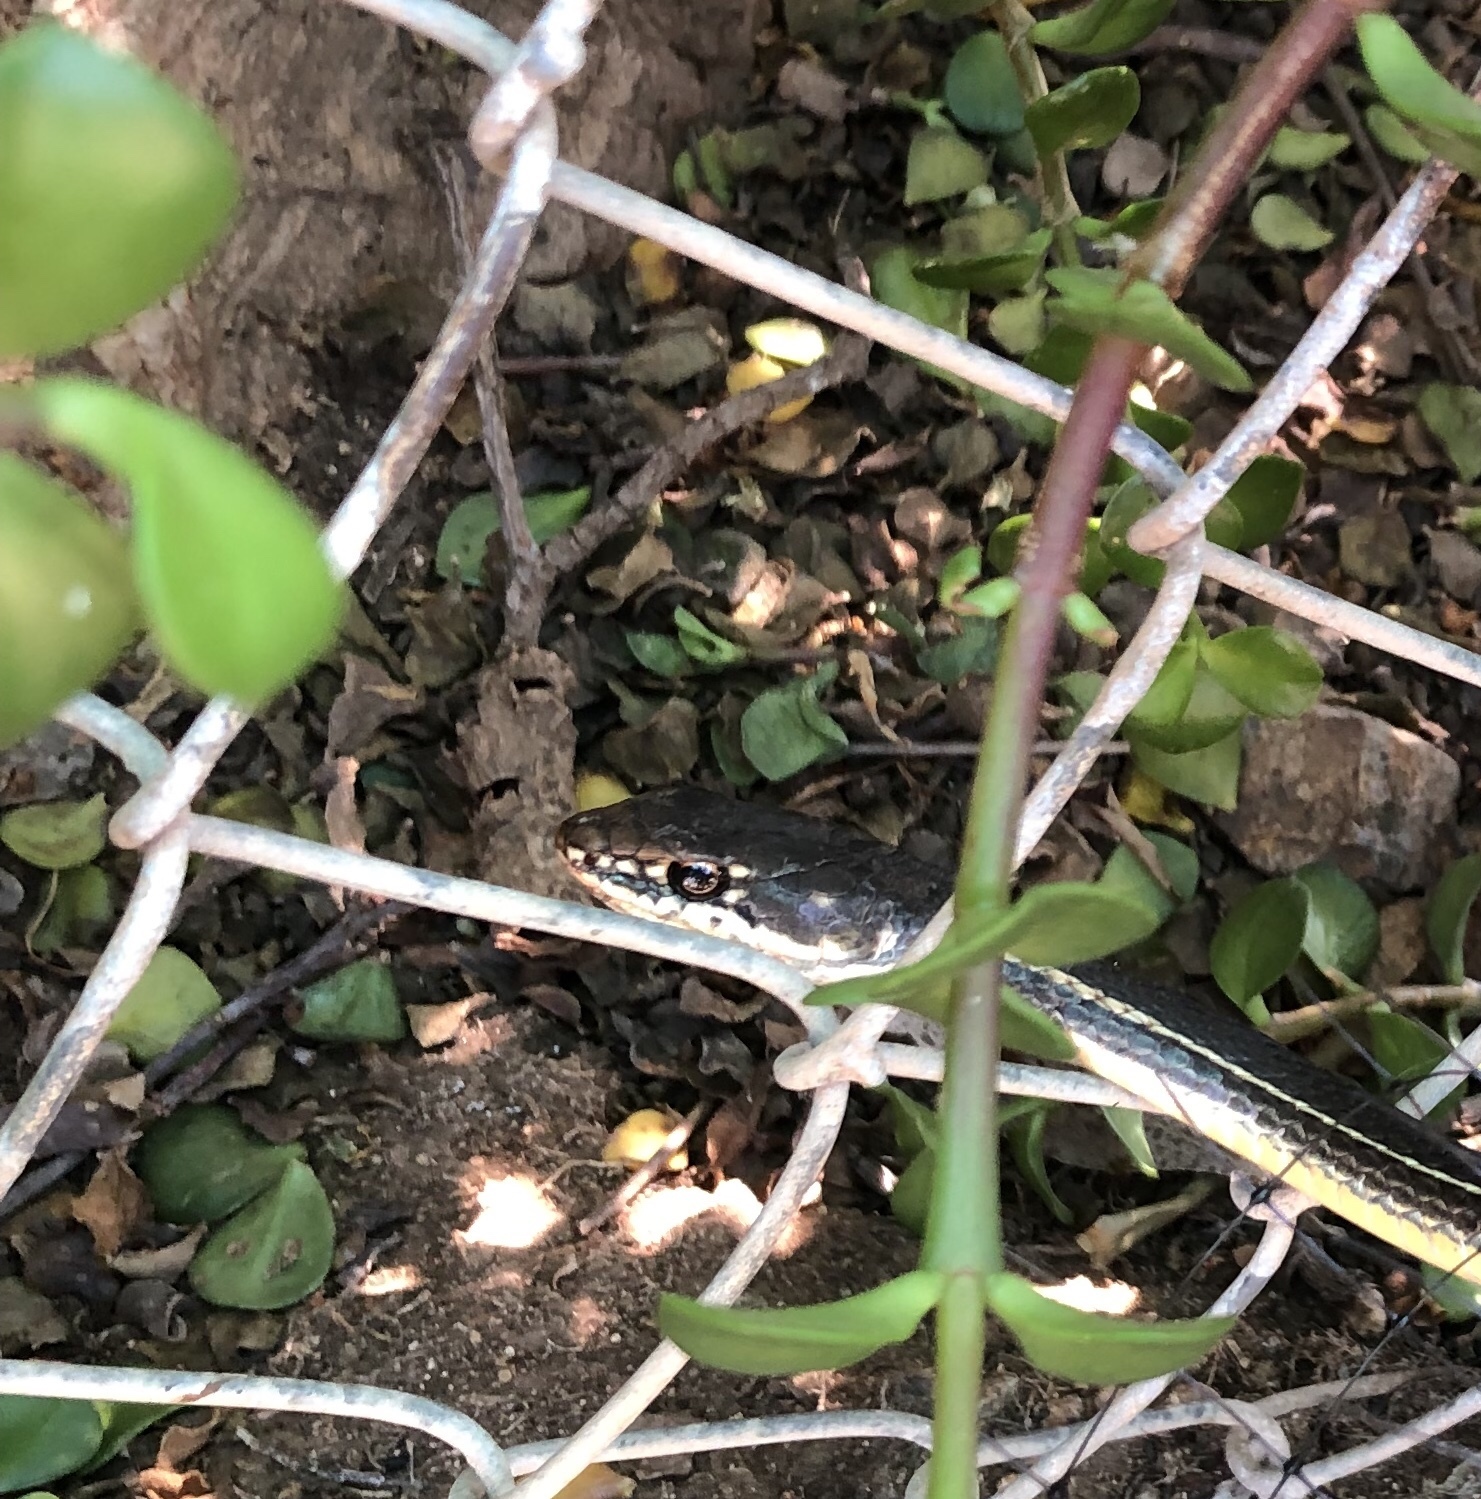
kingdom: Animalia
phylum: Chordata
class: Squamata
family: Colubridae
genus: Masticophis
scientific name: Masticophis lateralis
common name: Striped racer
